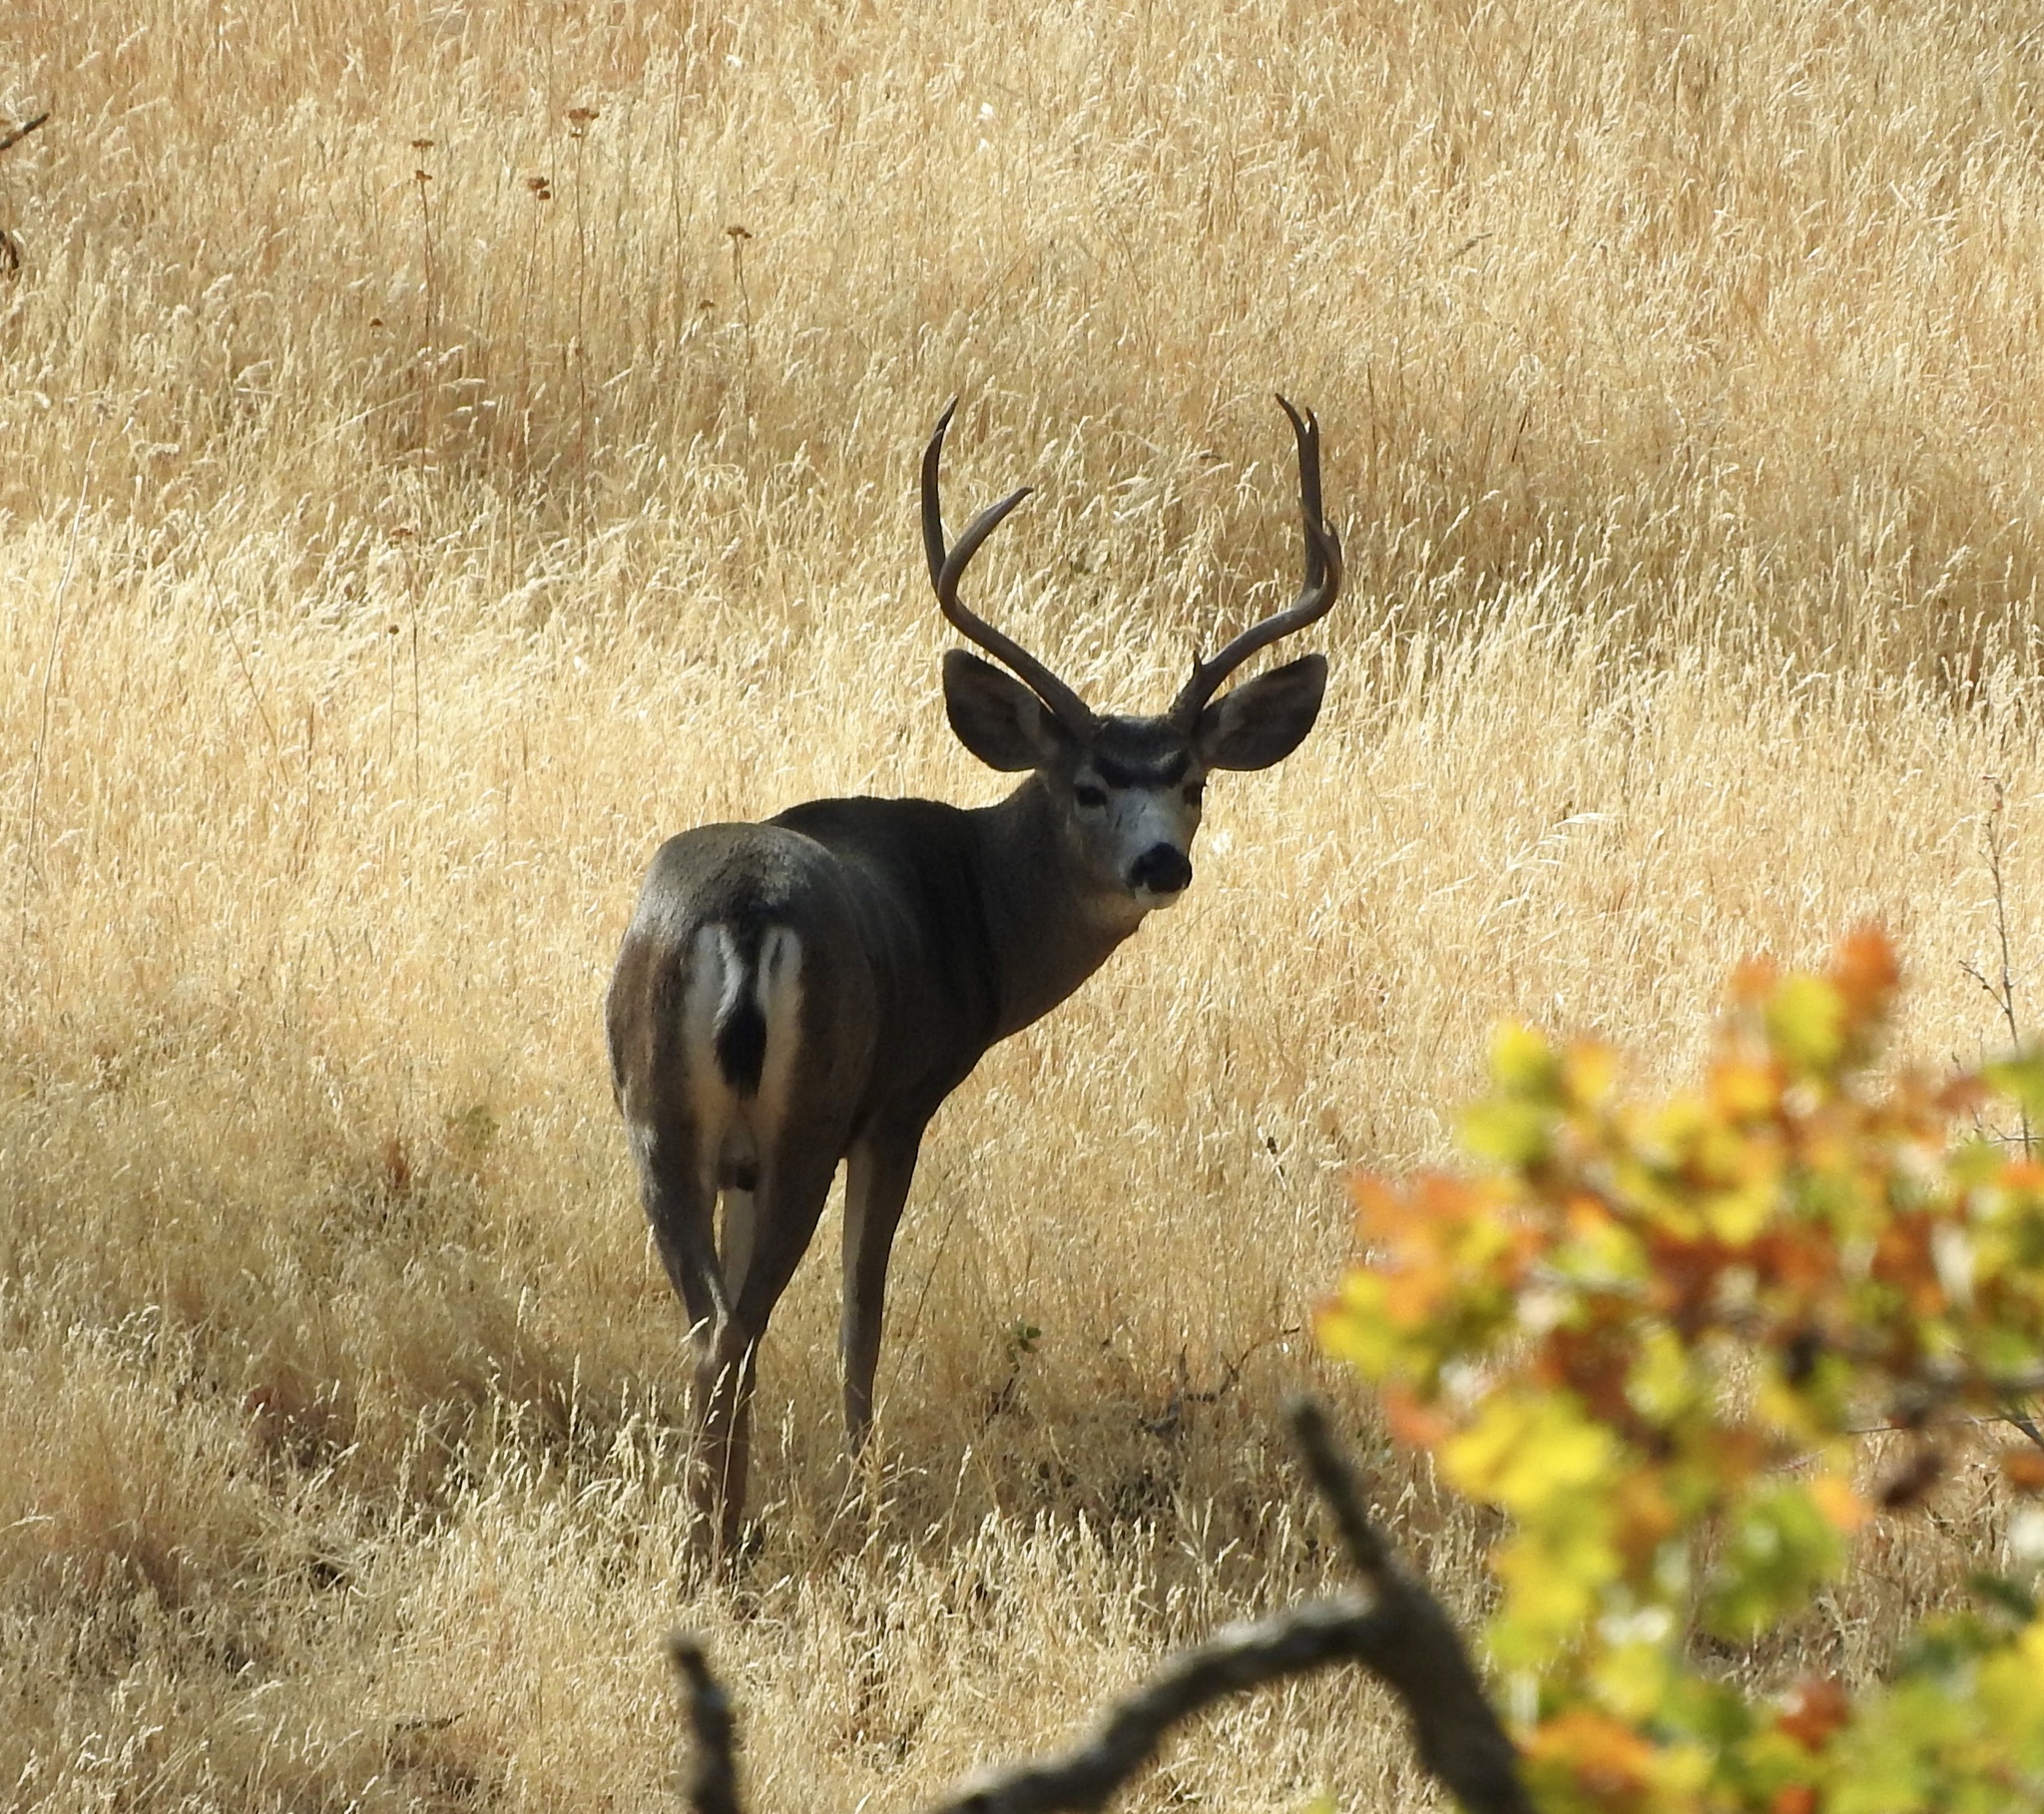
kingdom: Animalia
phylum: Chordata
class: Mammalia
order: Artiodactyla
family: Cervidae
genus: Odocoileus
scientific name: Odocoileus hemionus
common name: Mule deer
